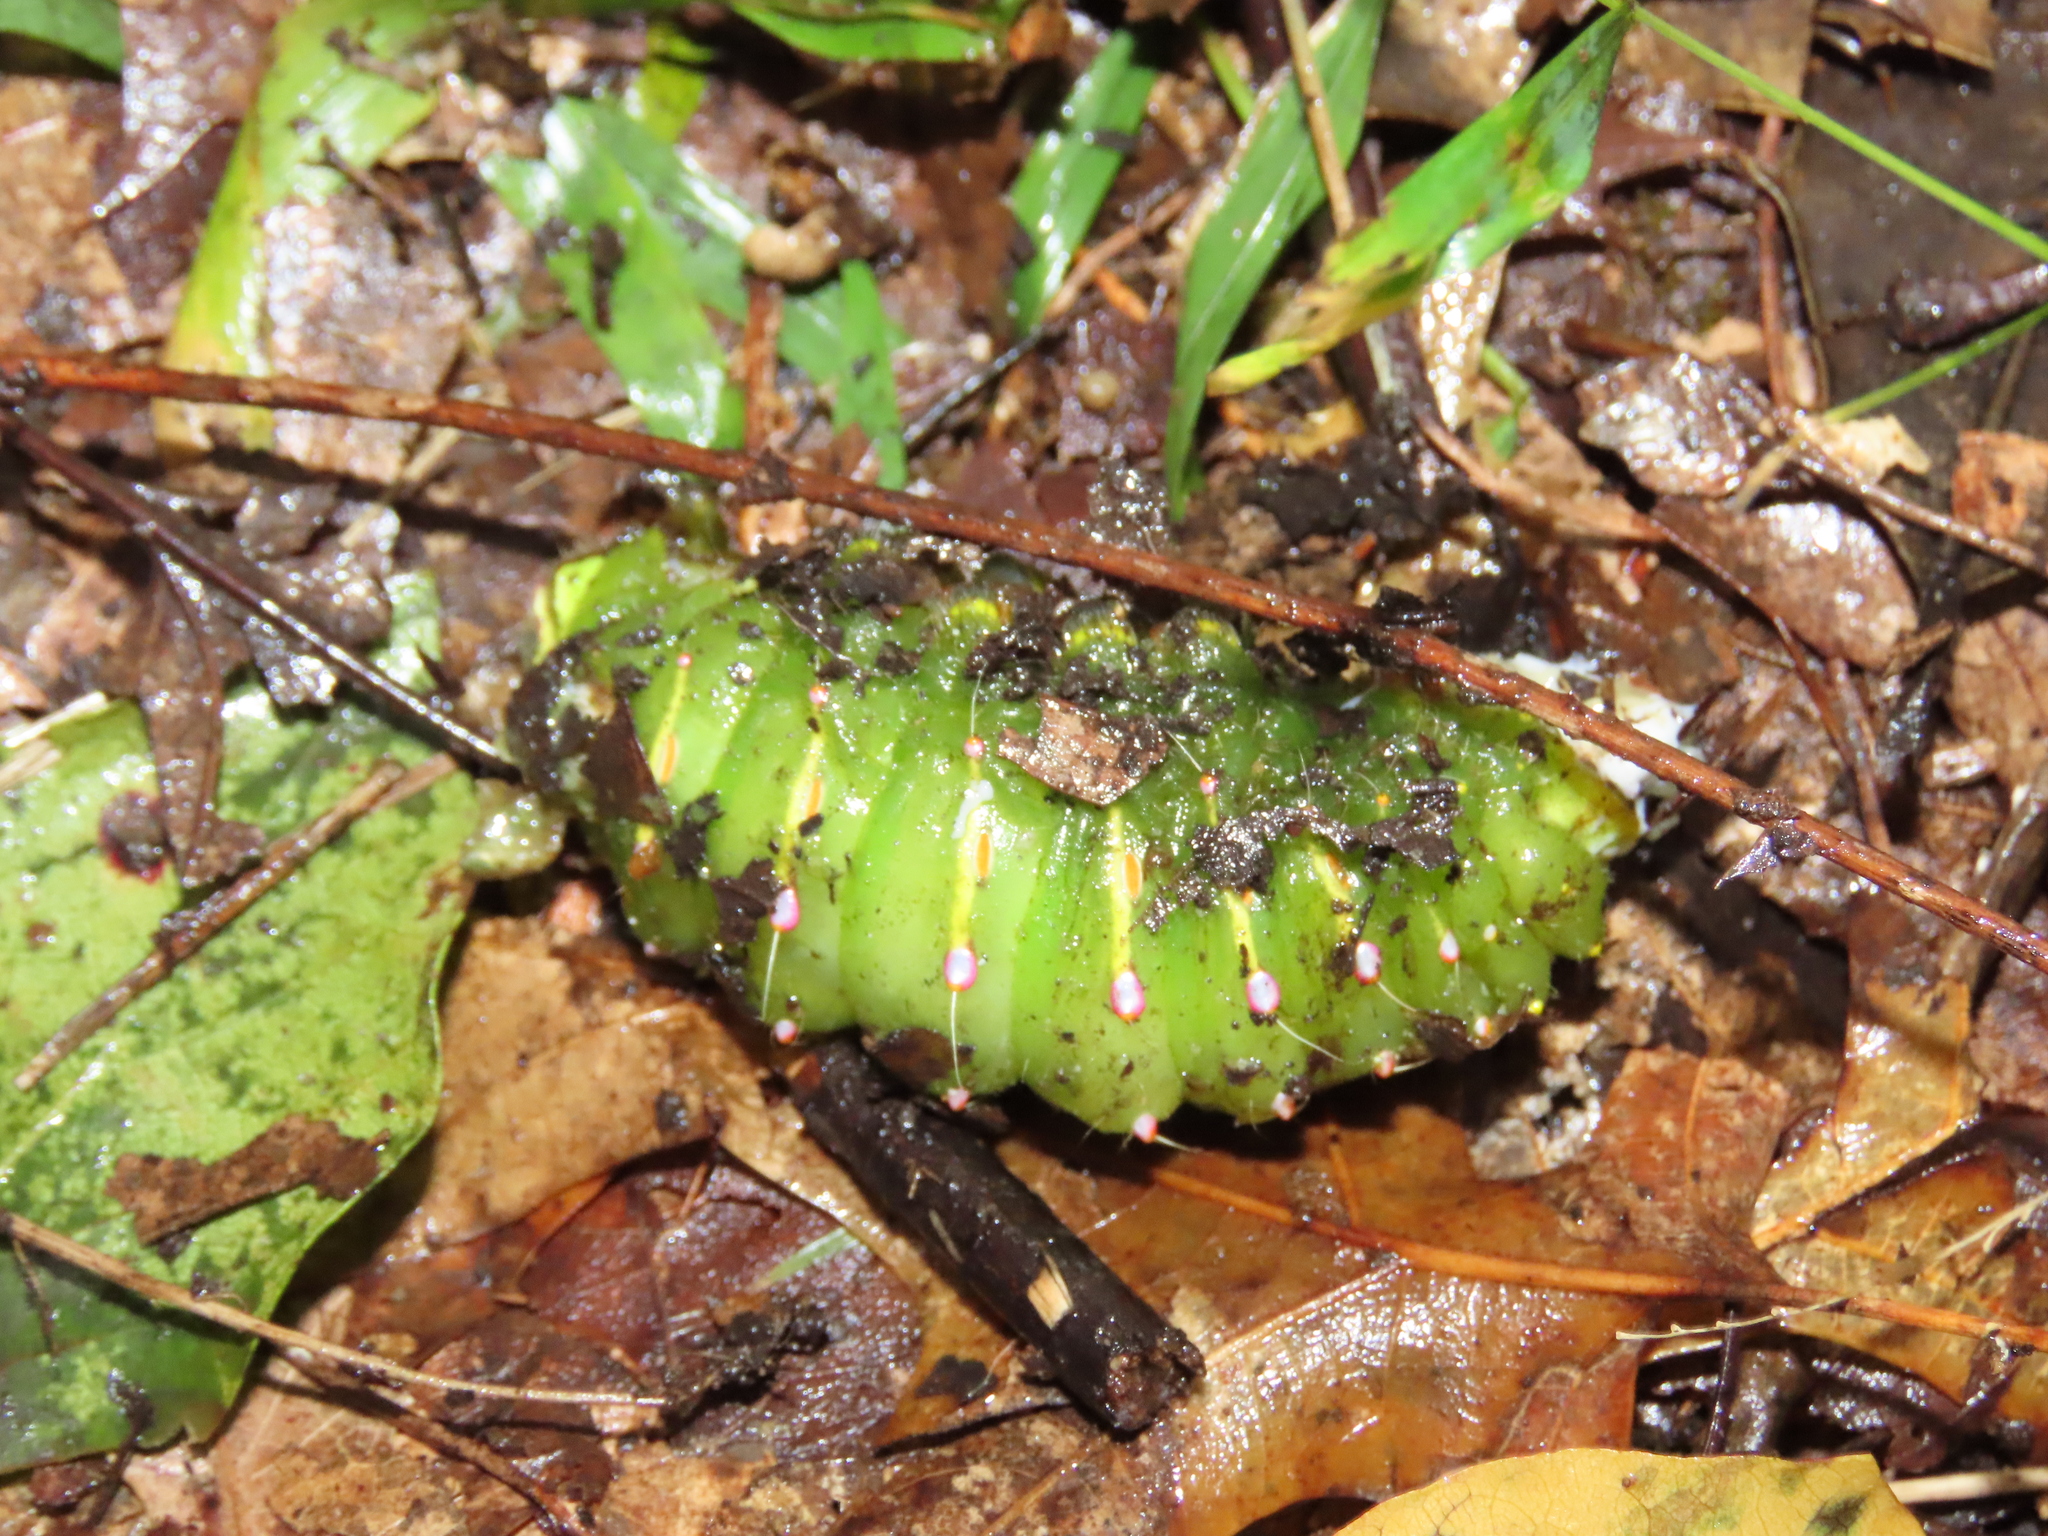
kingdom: Animalia
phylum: Arthropoda
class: Insecta
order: Lepidoptera
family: Saturniidae
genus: Antheraea
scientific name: Antheraea polyphemus
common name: Polyphemus moth
